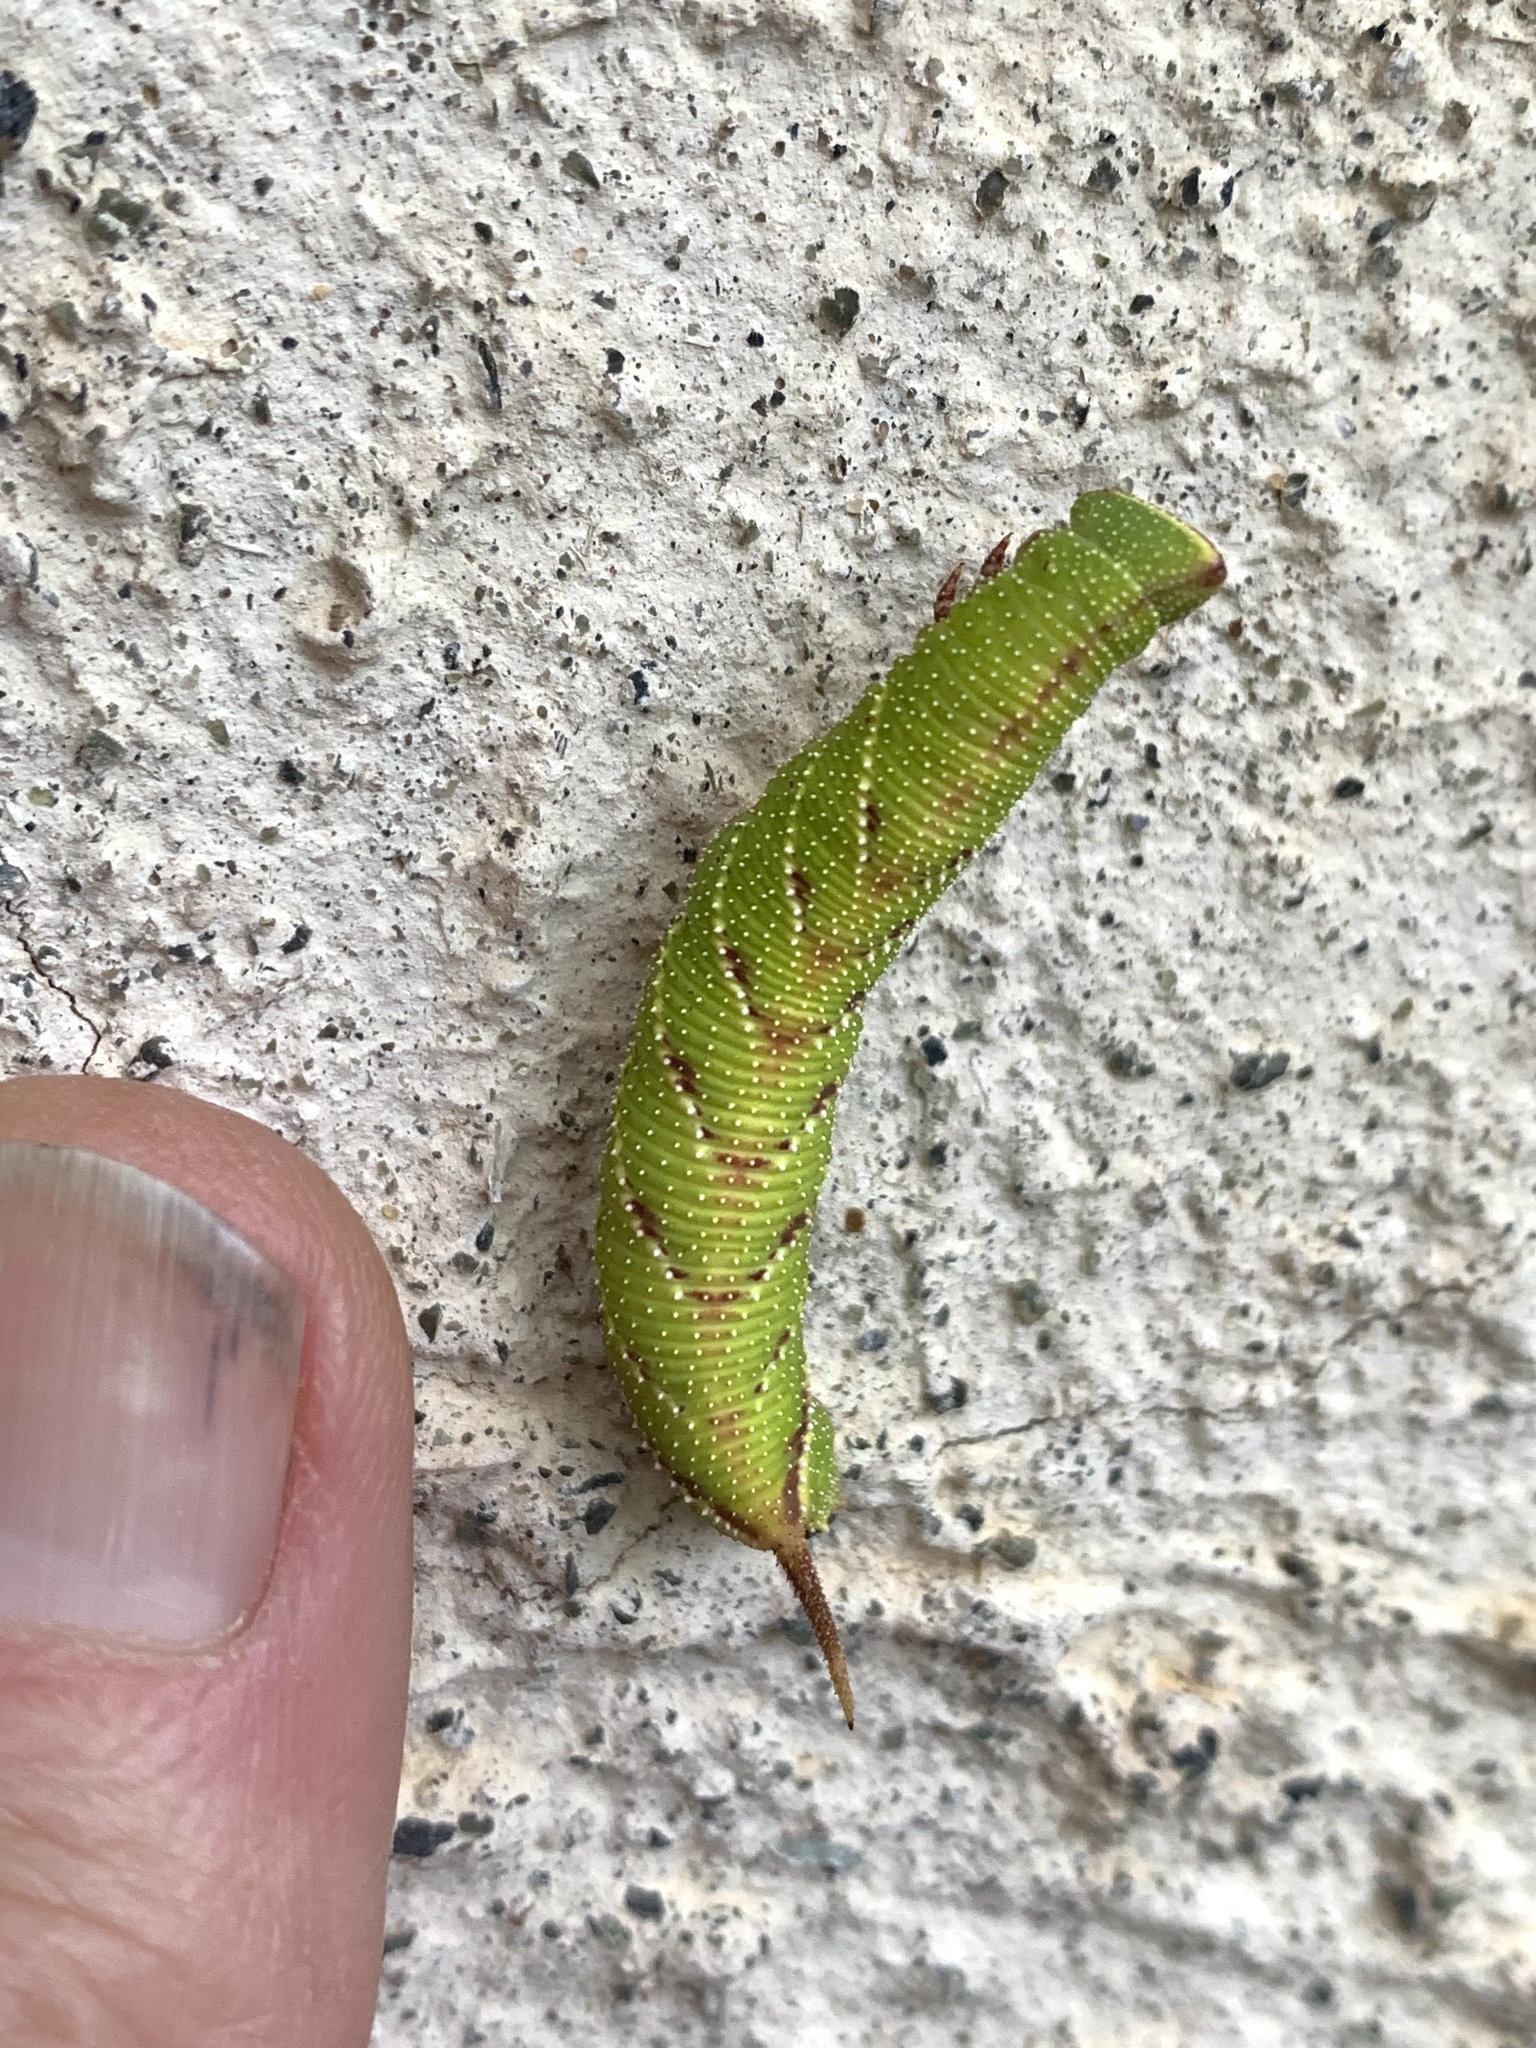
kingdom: Animalia
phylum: Arthropoda
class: Insecta
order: Lepidoptera
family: Sphingidae
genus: Amorpha
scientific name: Amorpha juglandis
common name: Walnut sphinx
